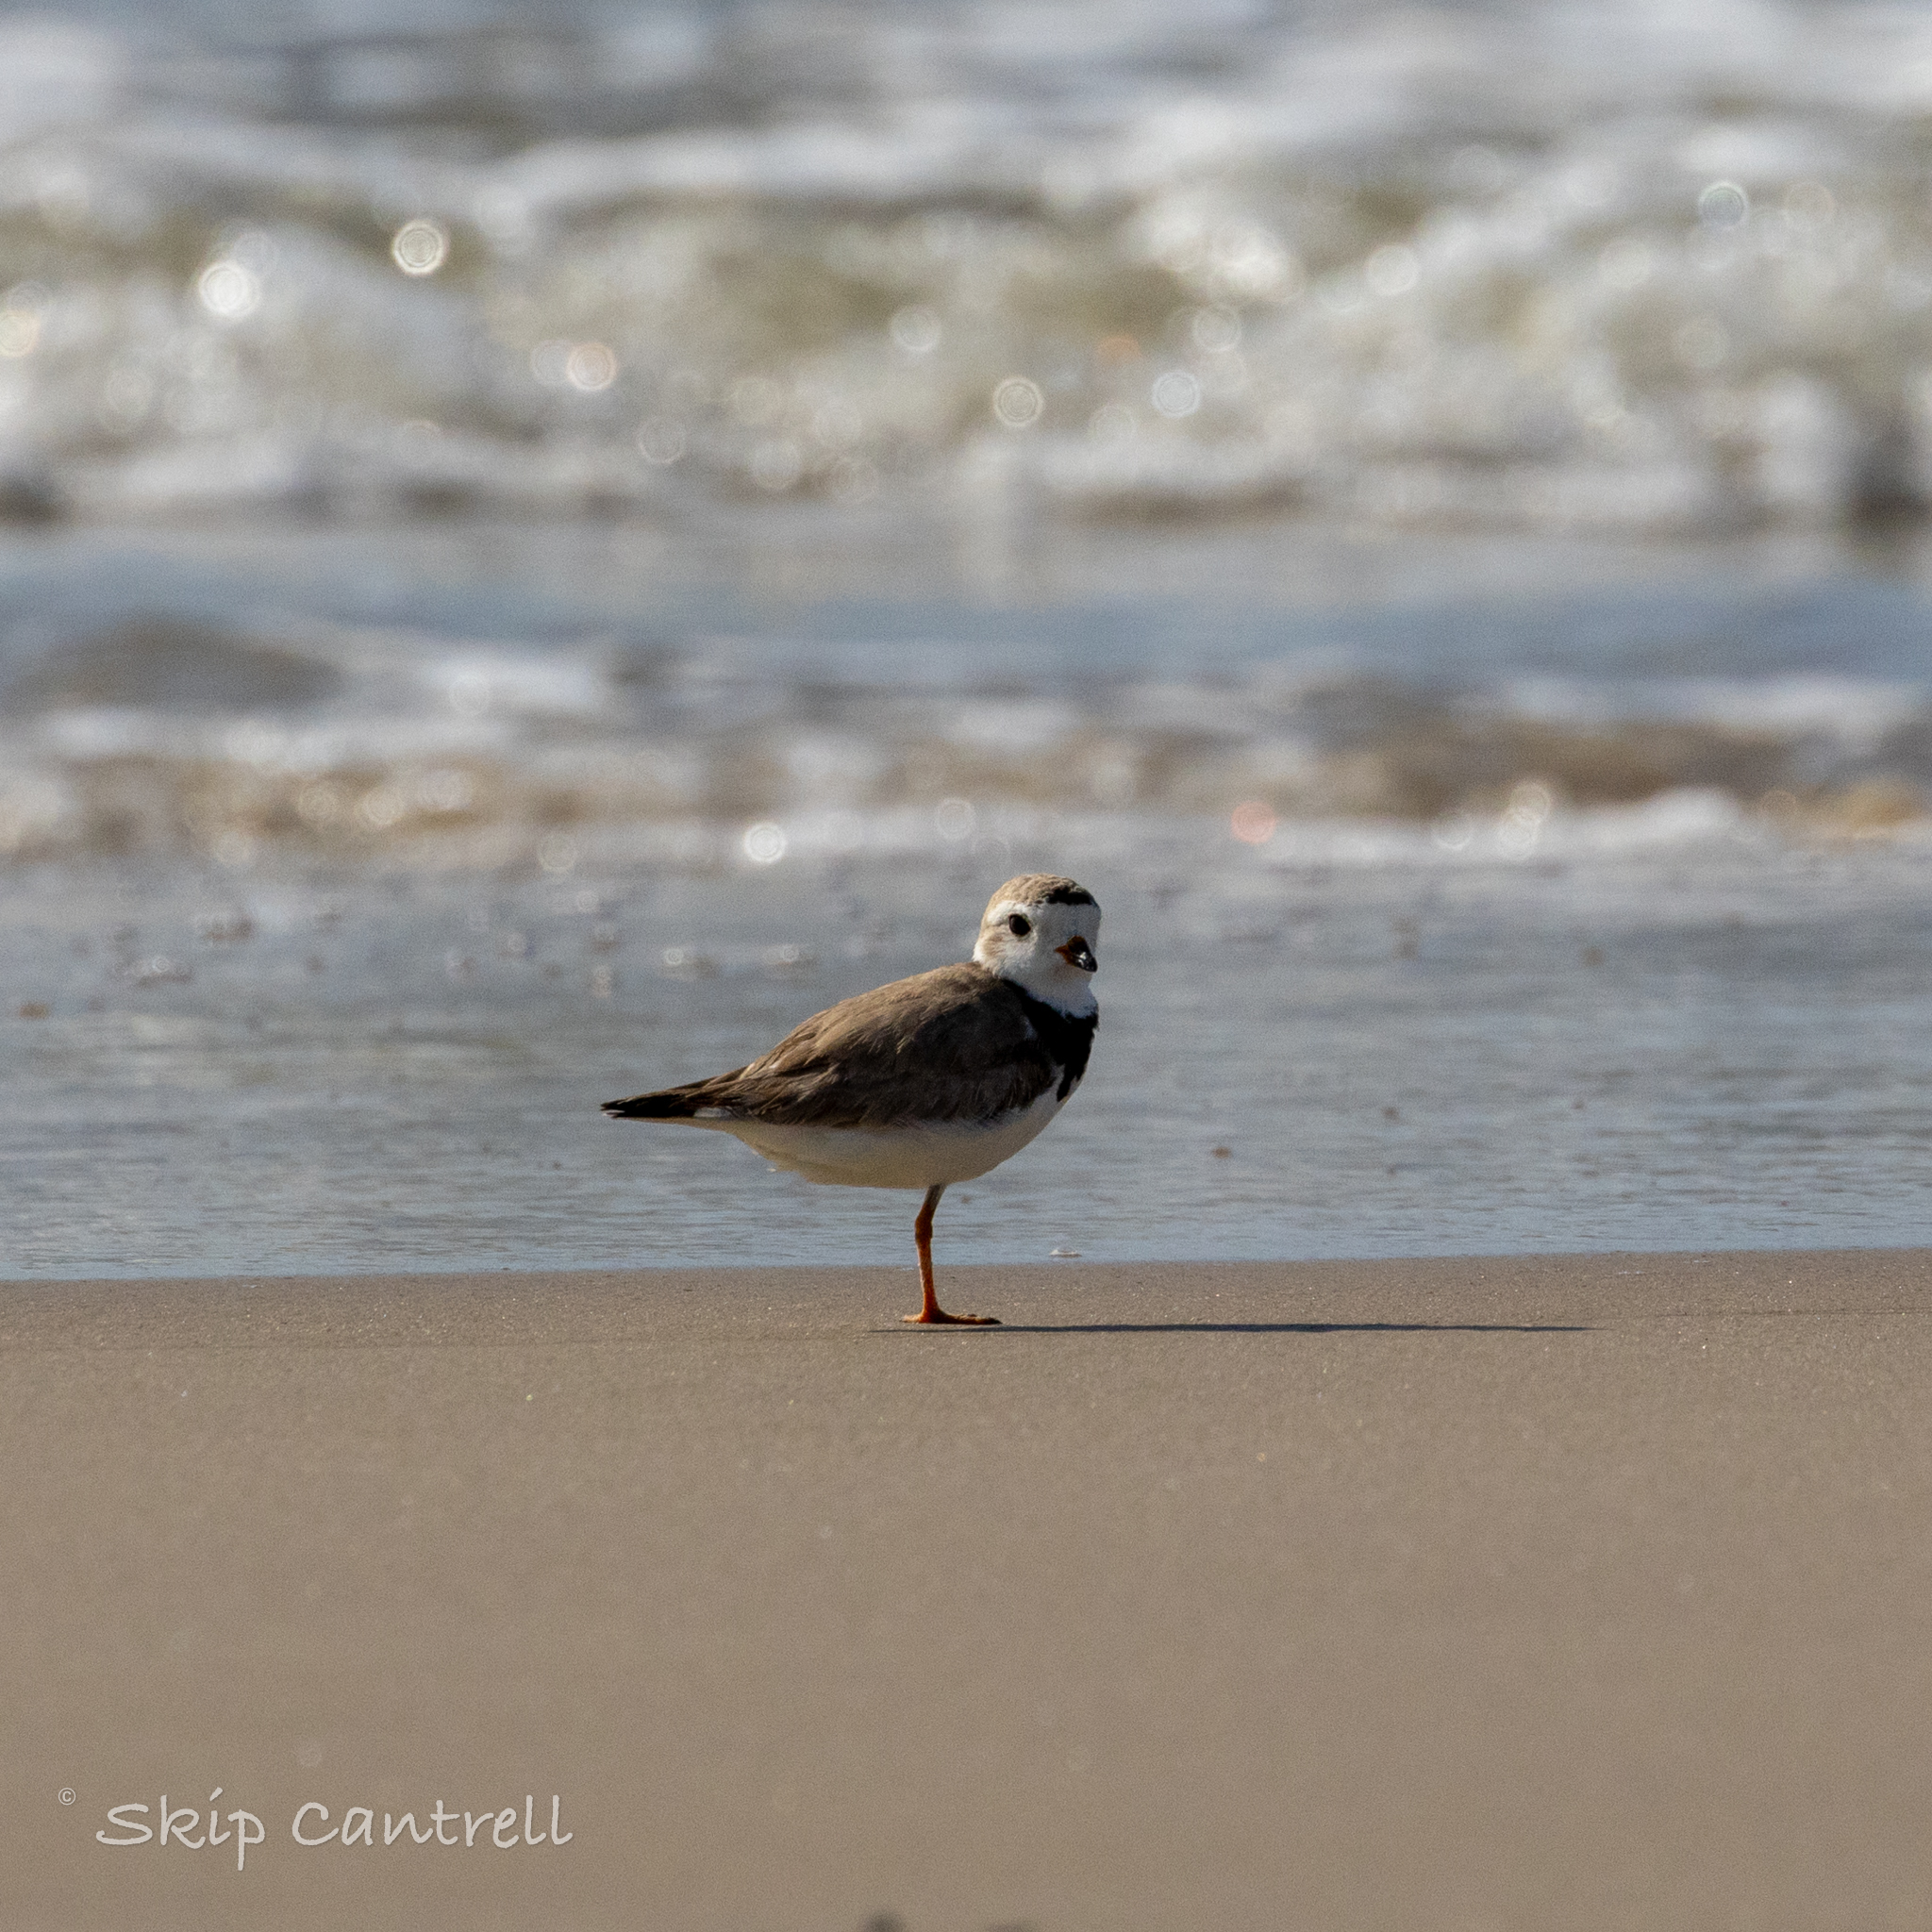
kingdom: Animalia
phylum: Chordata
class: Aves
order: Charadriiformes
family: Charadriidae
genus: Charadrius
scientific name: Charadrius melodus
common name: Piping plover
